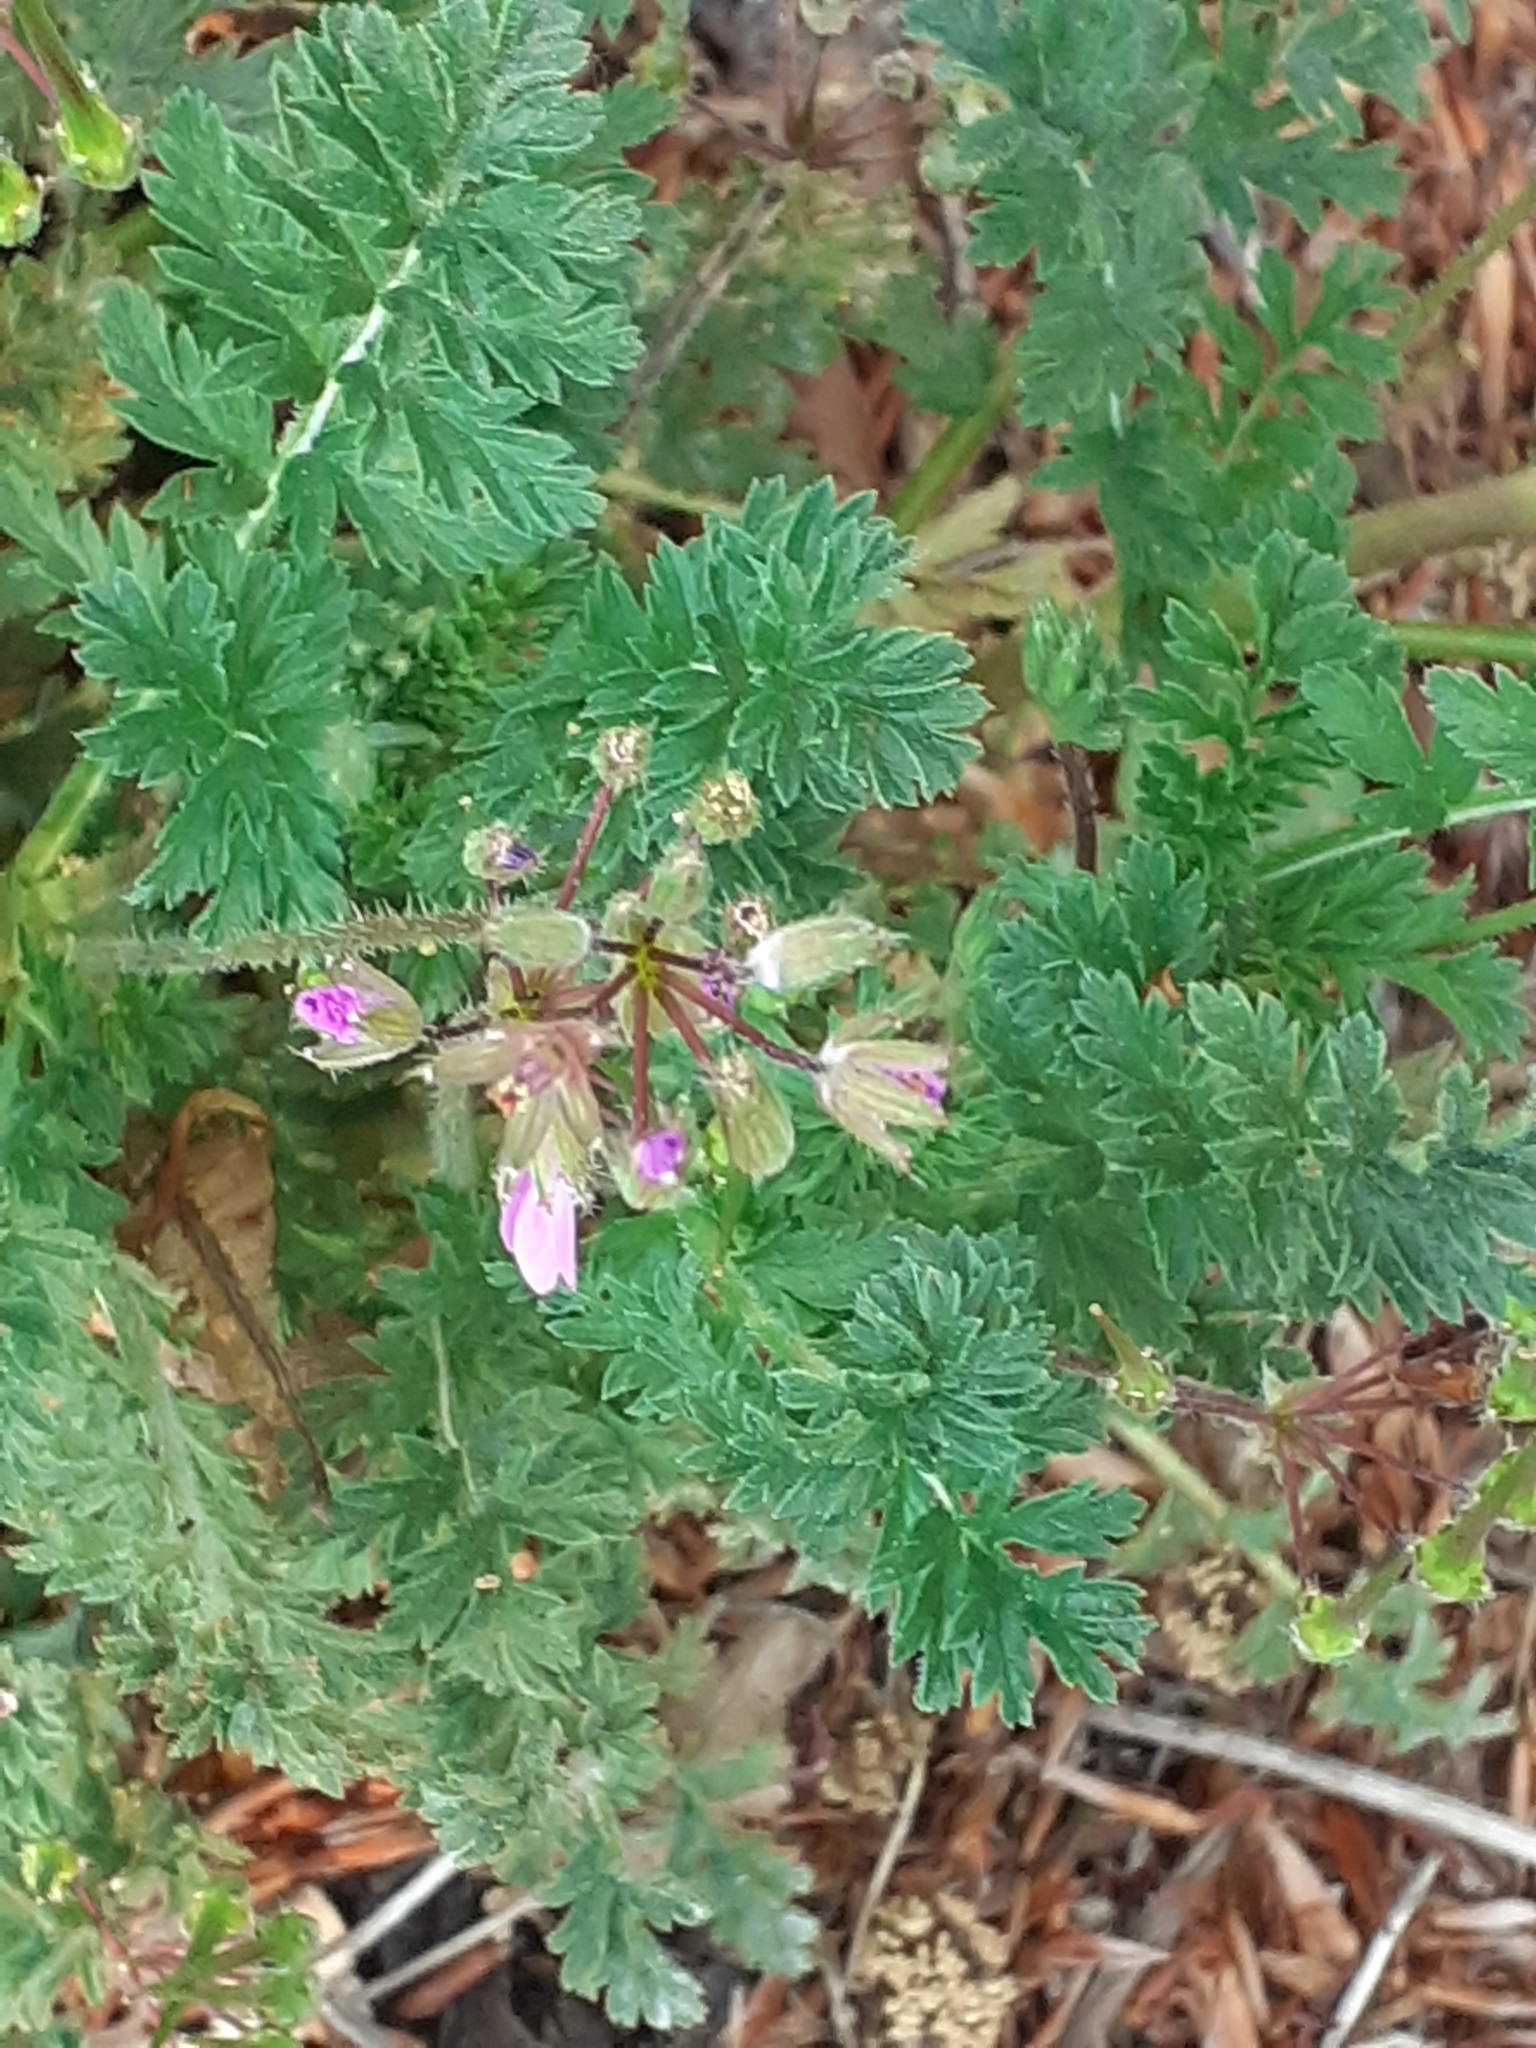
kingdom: Plantae
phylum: Tracheophyta
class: Magnoliopsida
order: Geraniales
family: Geraniaceae
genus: Erodium
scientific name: Erodium cicutarium
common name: Common stork's-bill
